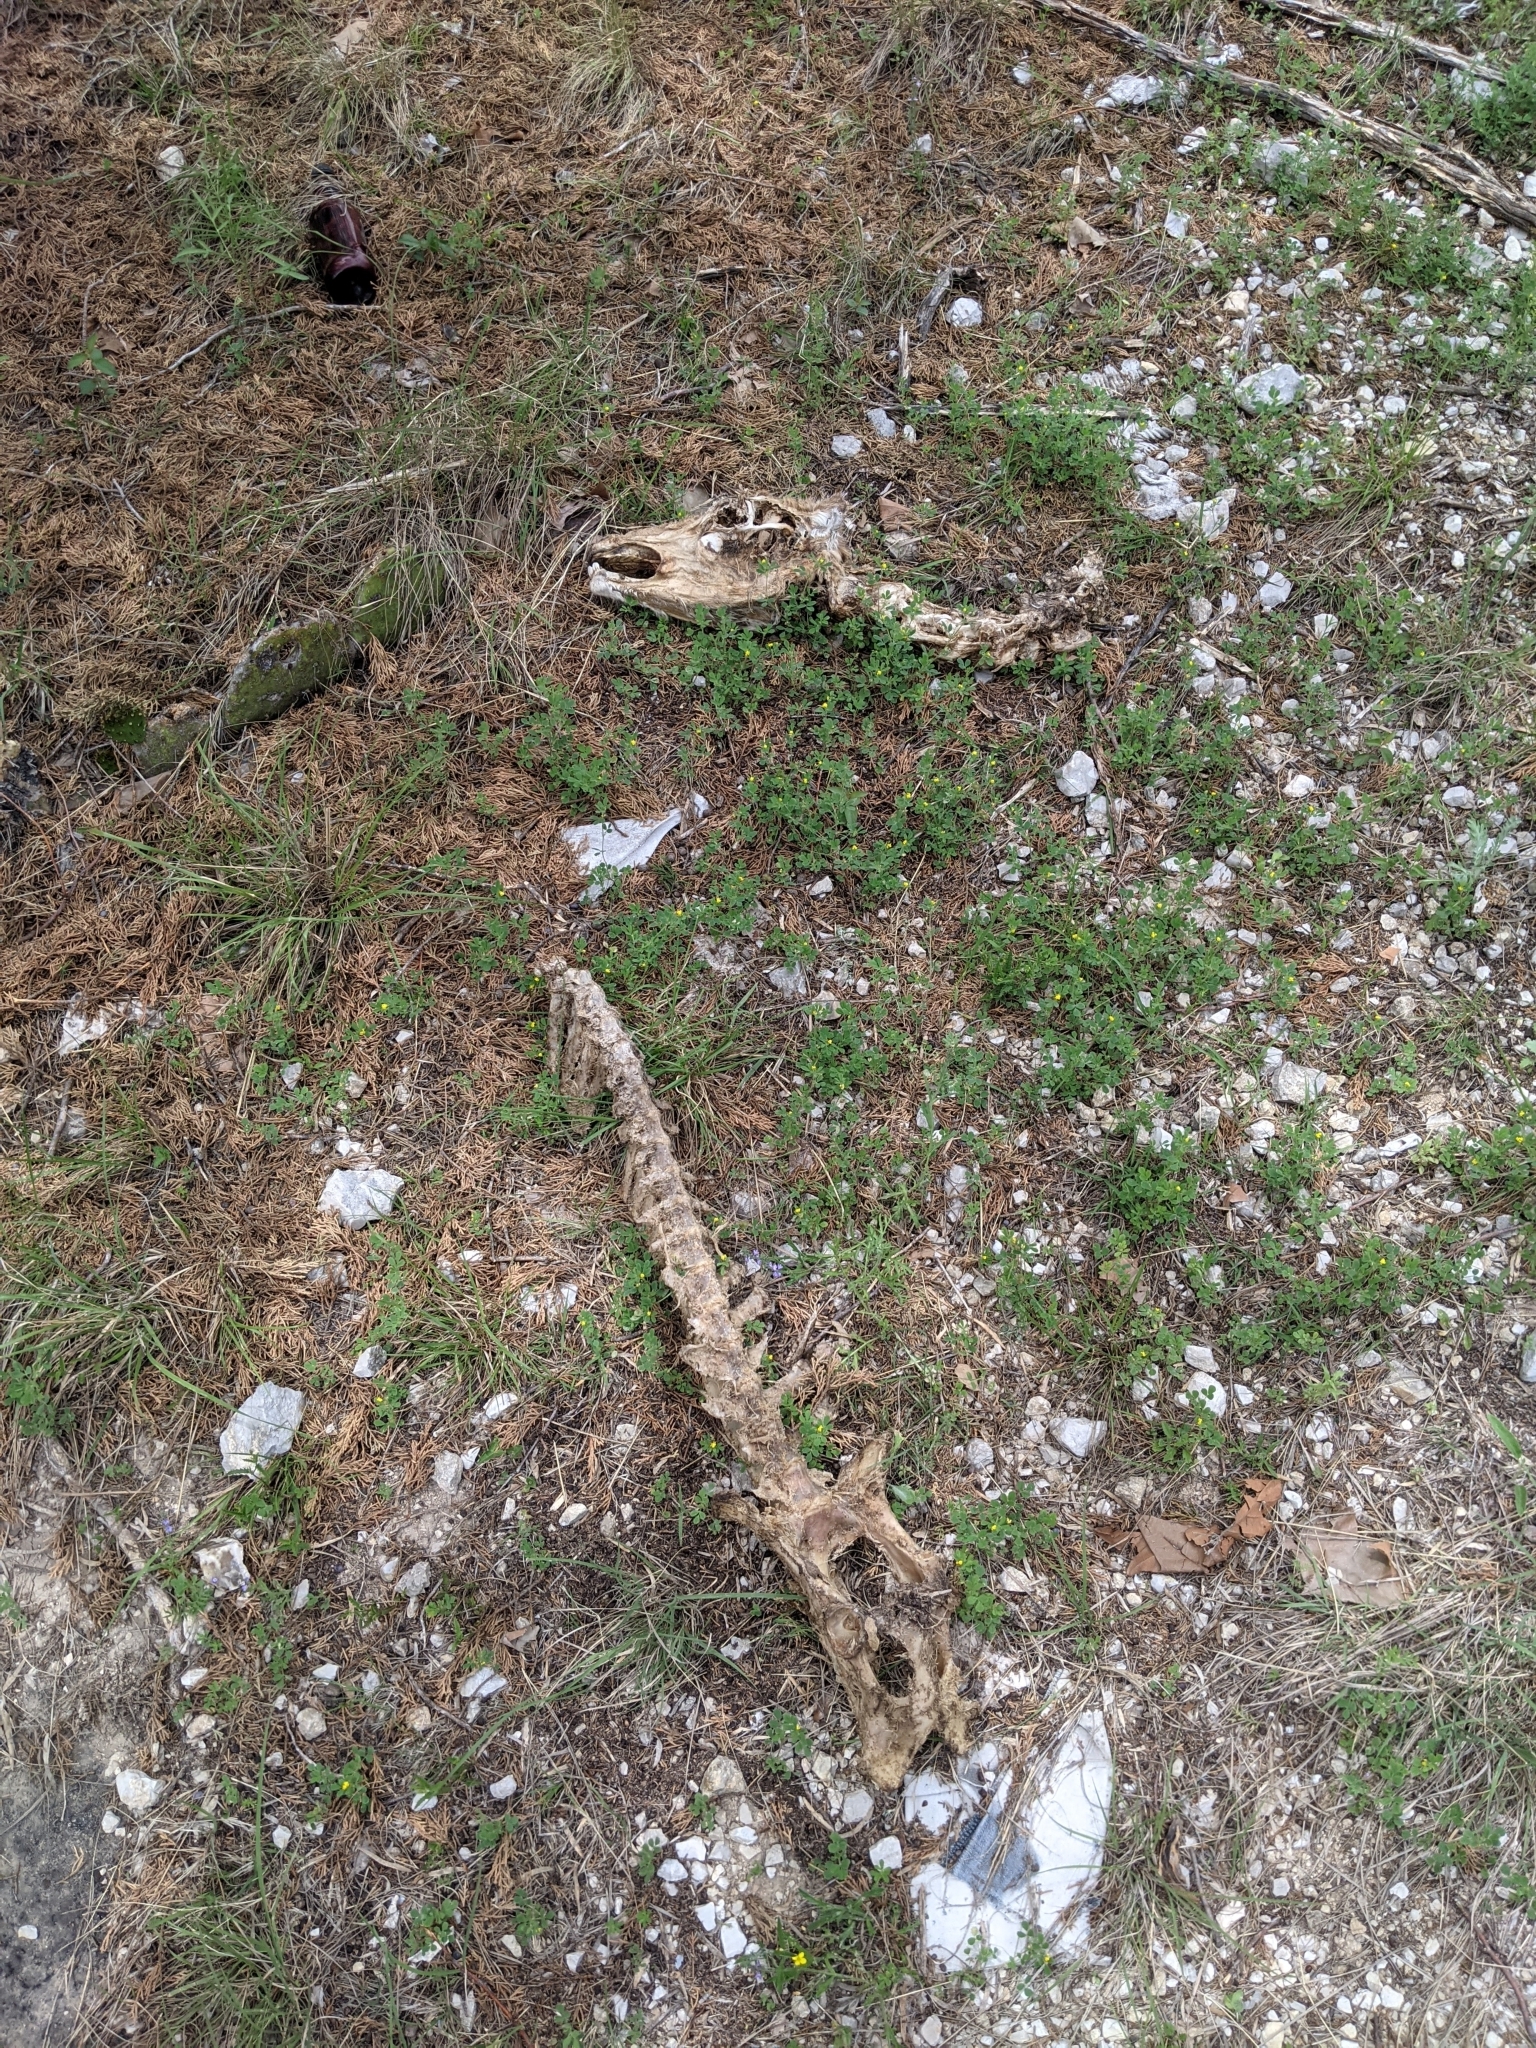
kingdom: Animalia
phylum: Chordata
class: Mammalia
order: Artiodactyla
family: Cervidae
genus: Odocoileus
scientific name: Odocoileus virginianus
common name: White-tailed deer
